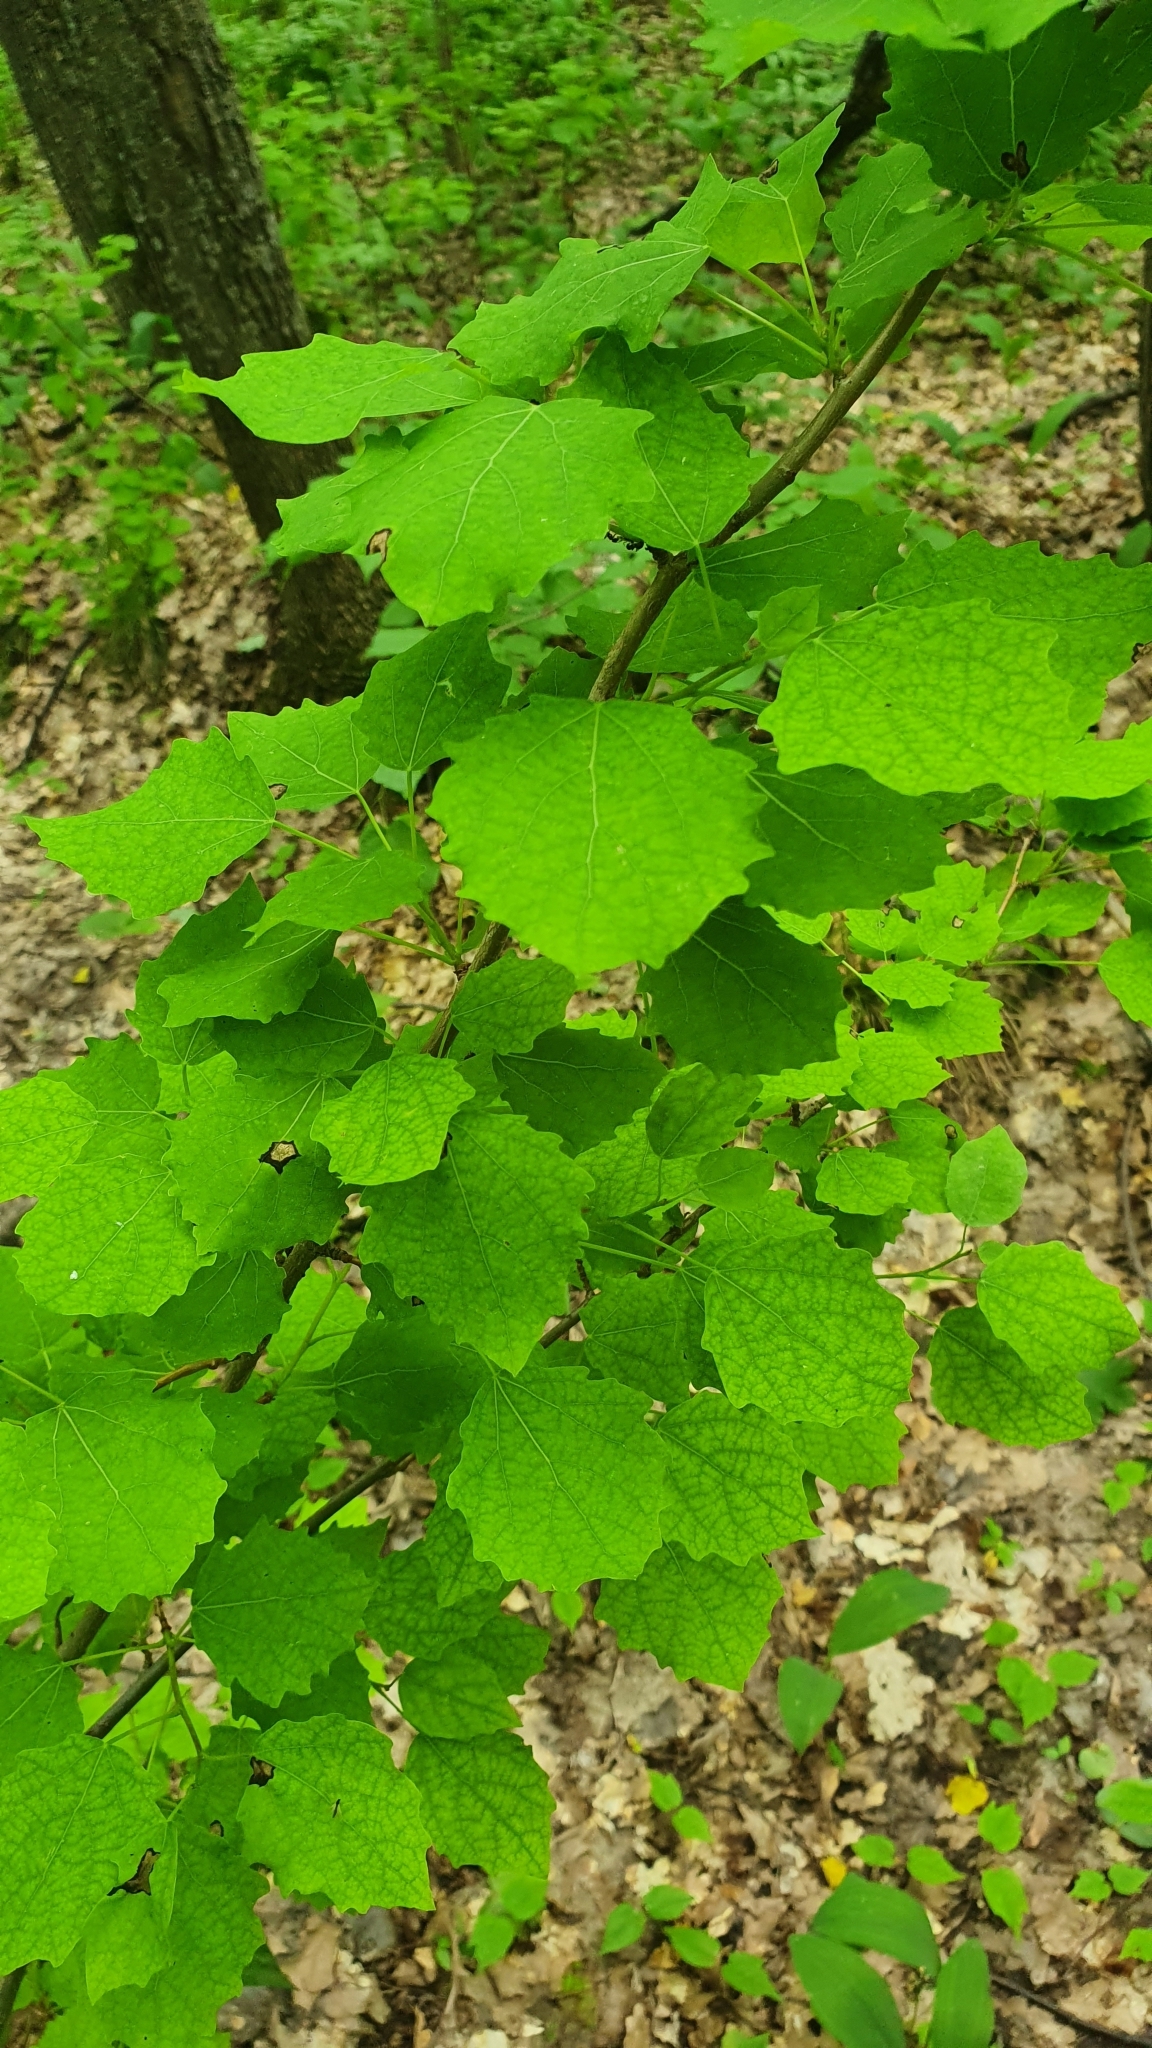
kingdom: Plantae
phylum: Tracheophyta
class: Magnoliopsida
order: Malpighiales
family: Salicaceae
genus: Populus
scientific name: Populus tremula
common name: European aspen
